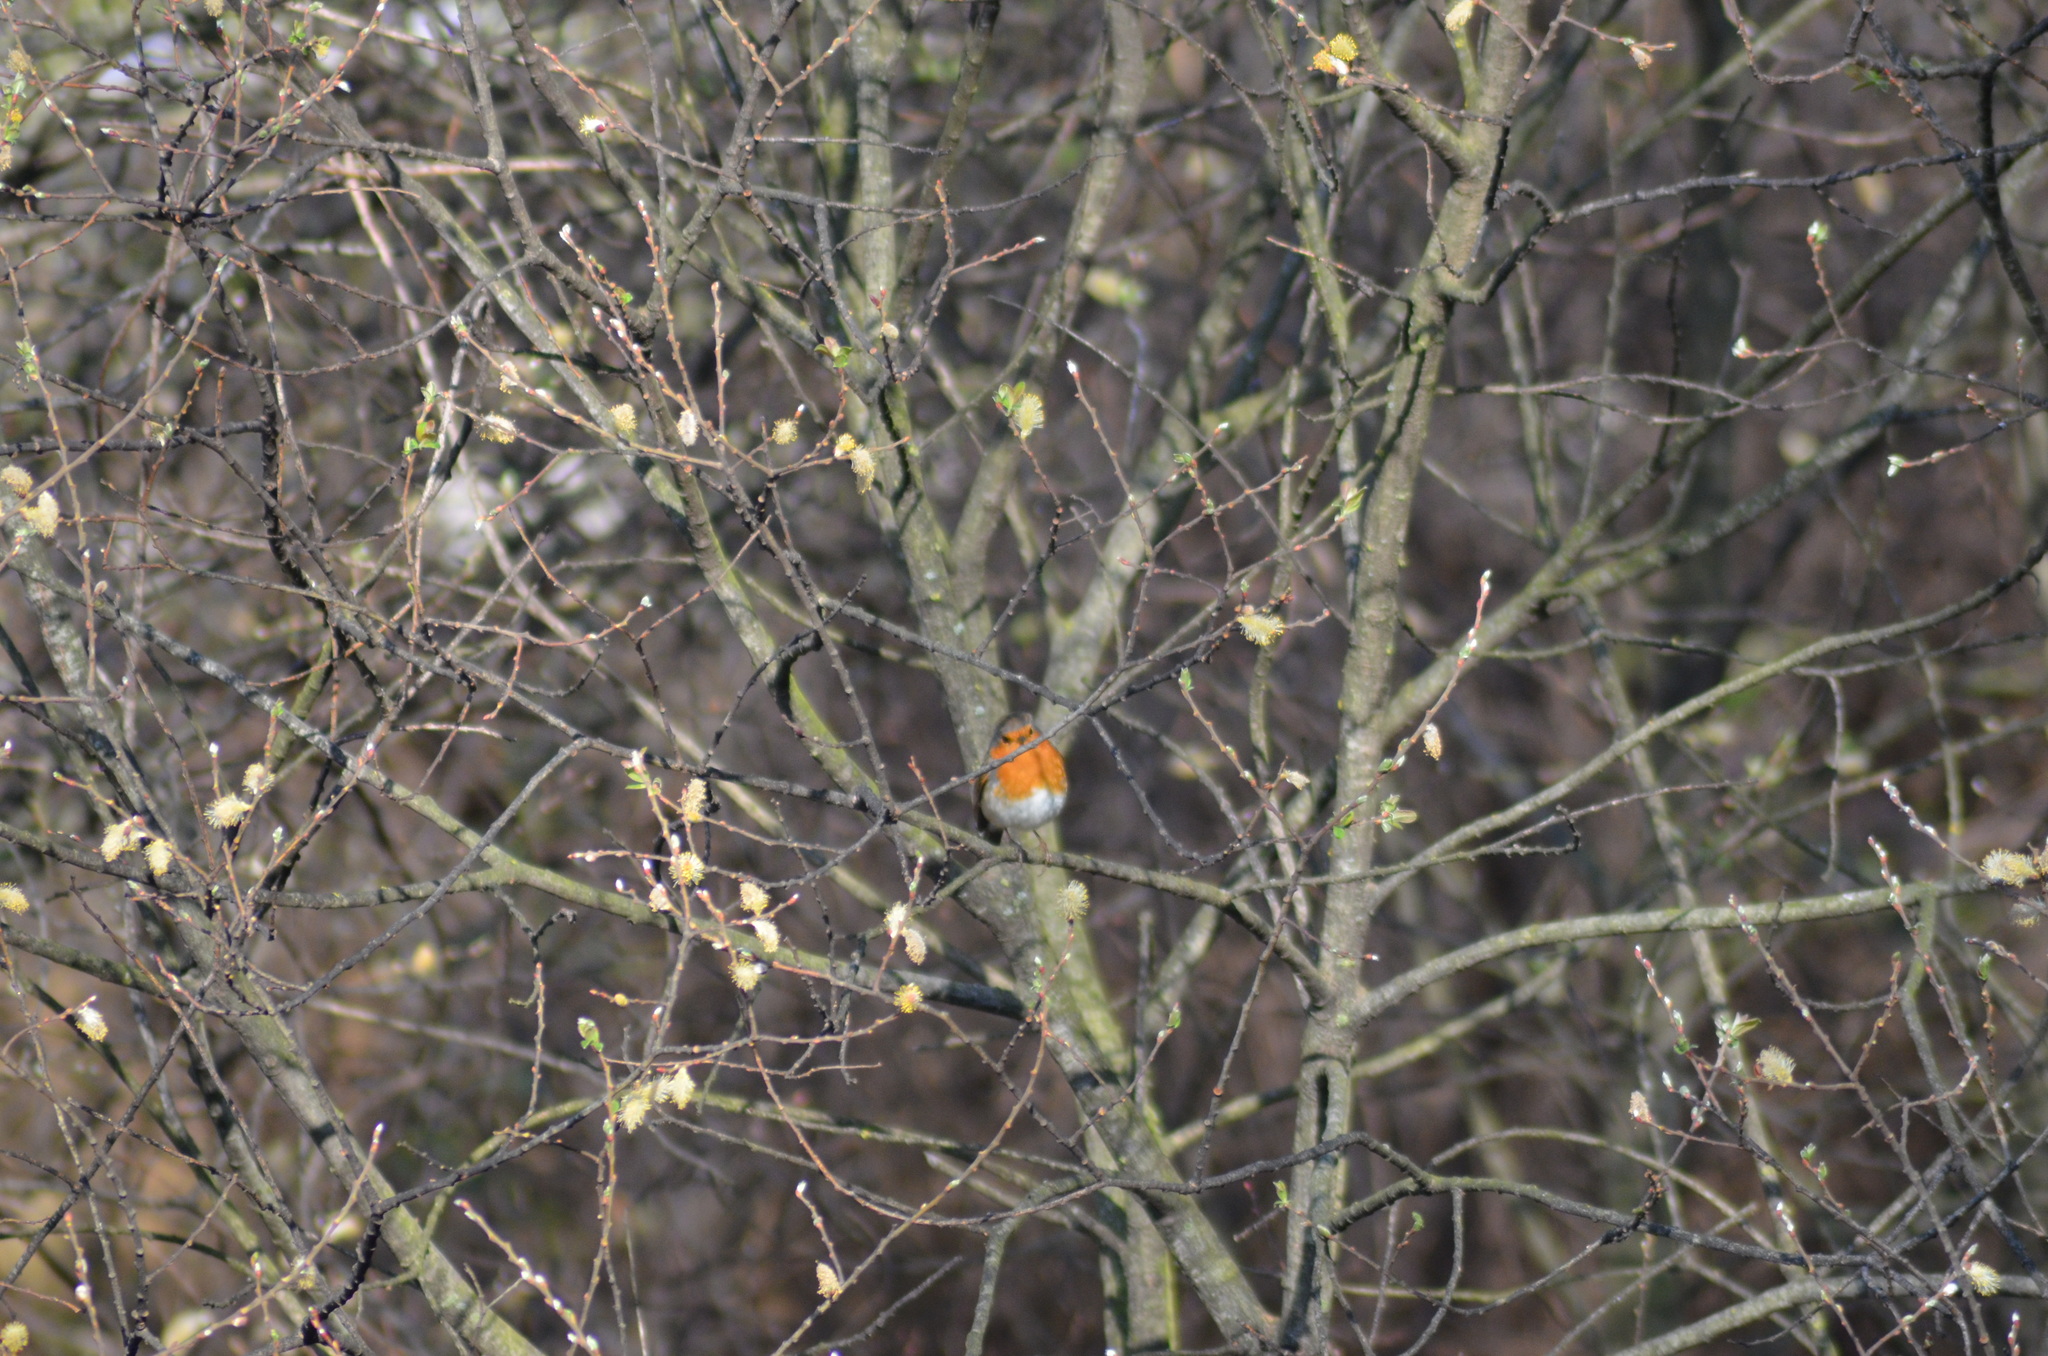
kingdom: Animalia
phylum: Chordata
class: Aves
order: Passeriformes
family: Muscicapidae
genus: Erithacus
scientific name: Erithacus rubecula
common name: European robin
